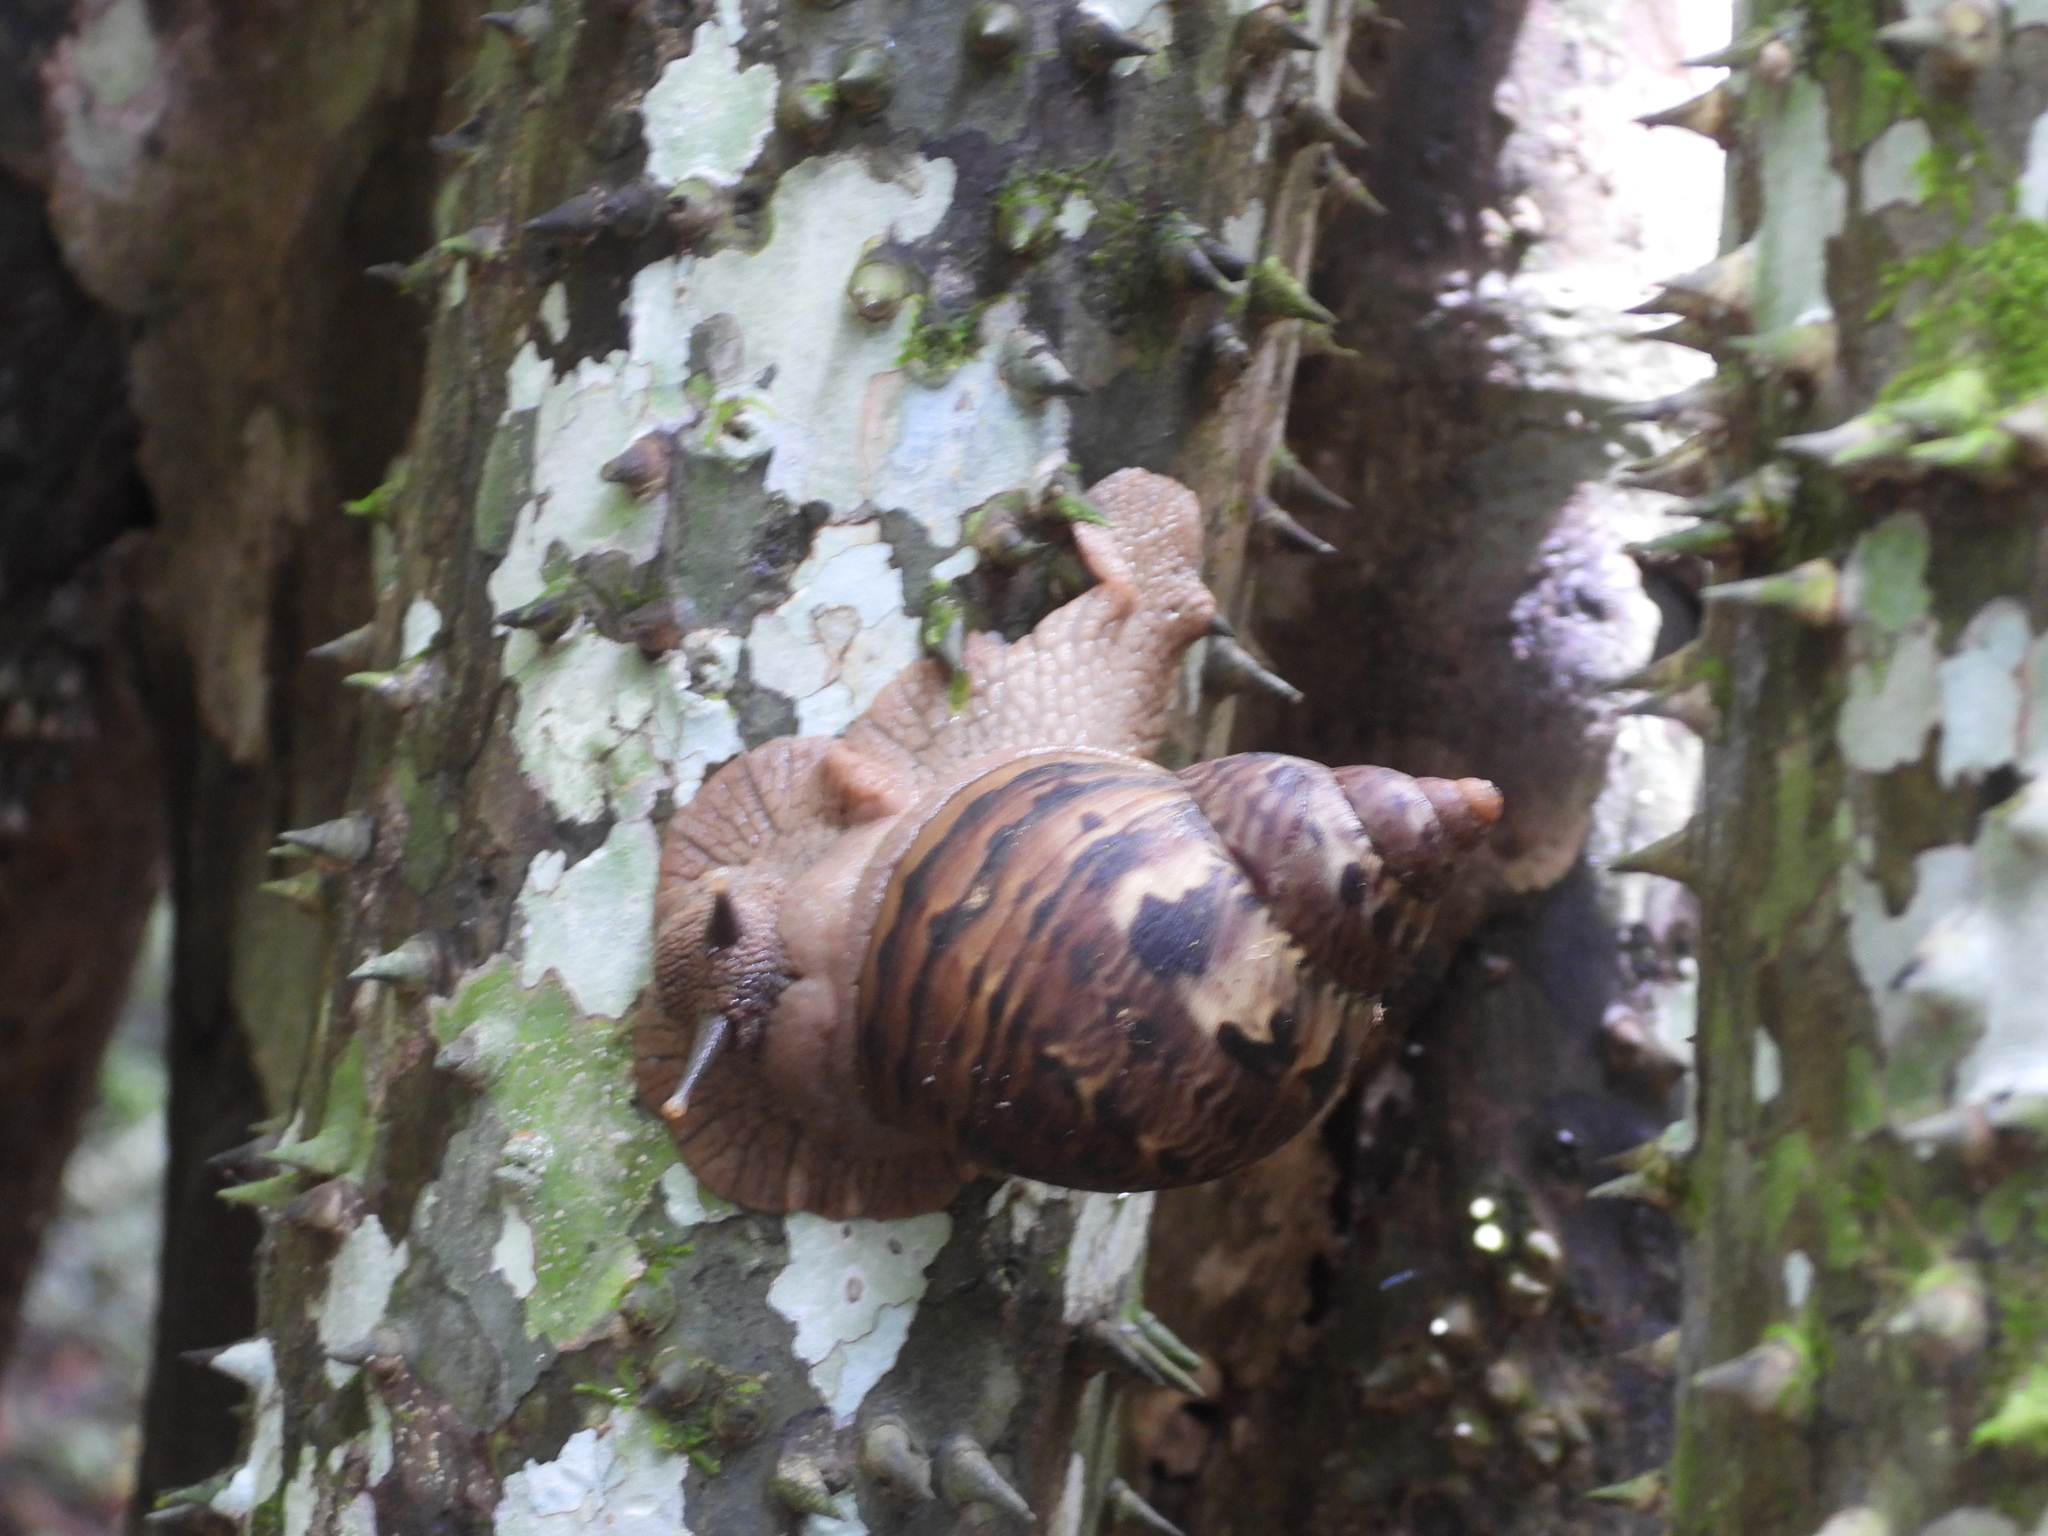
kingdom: Animalia
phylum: Mollusca
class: Gastropoda
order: Stylommatophora
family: Orthalicidae
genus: Sultana
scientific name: Sultana sultana
